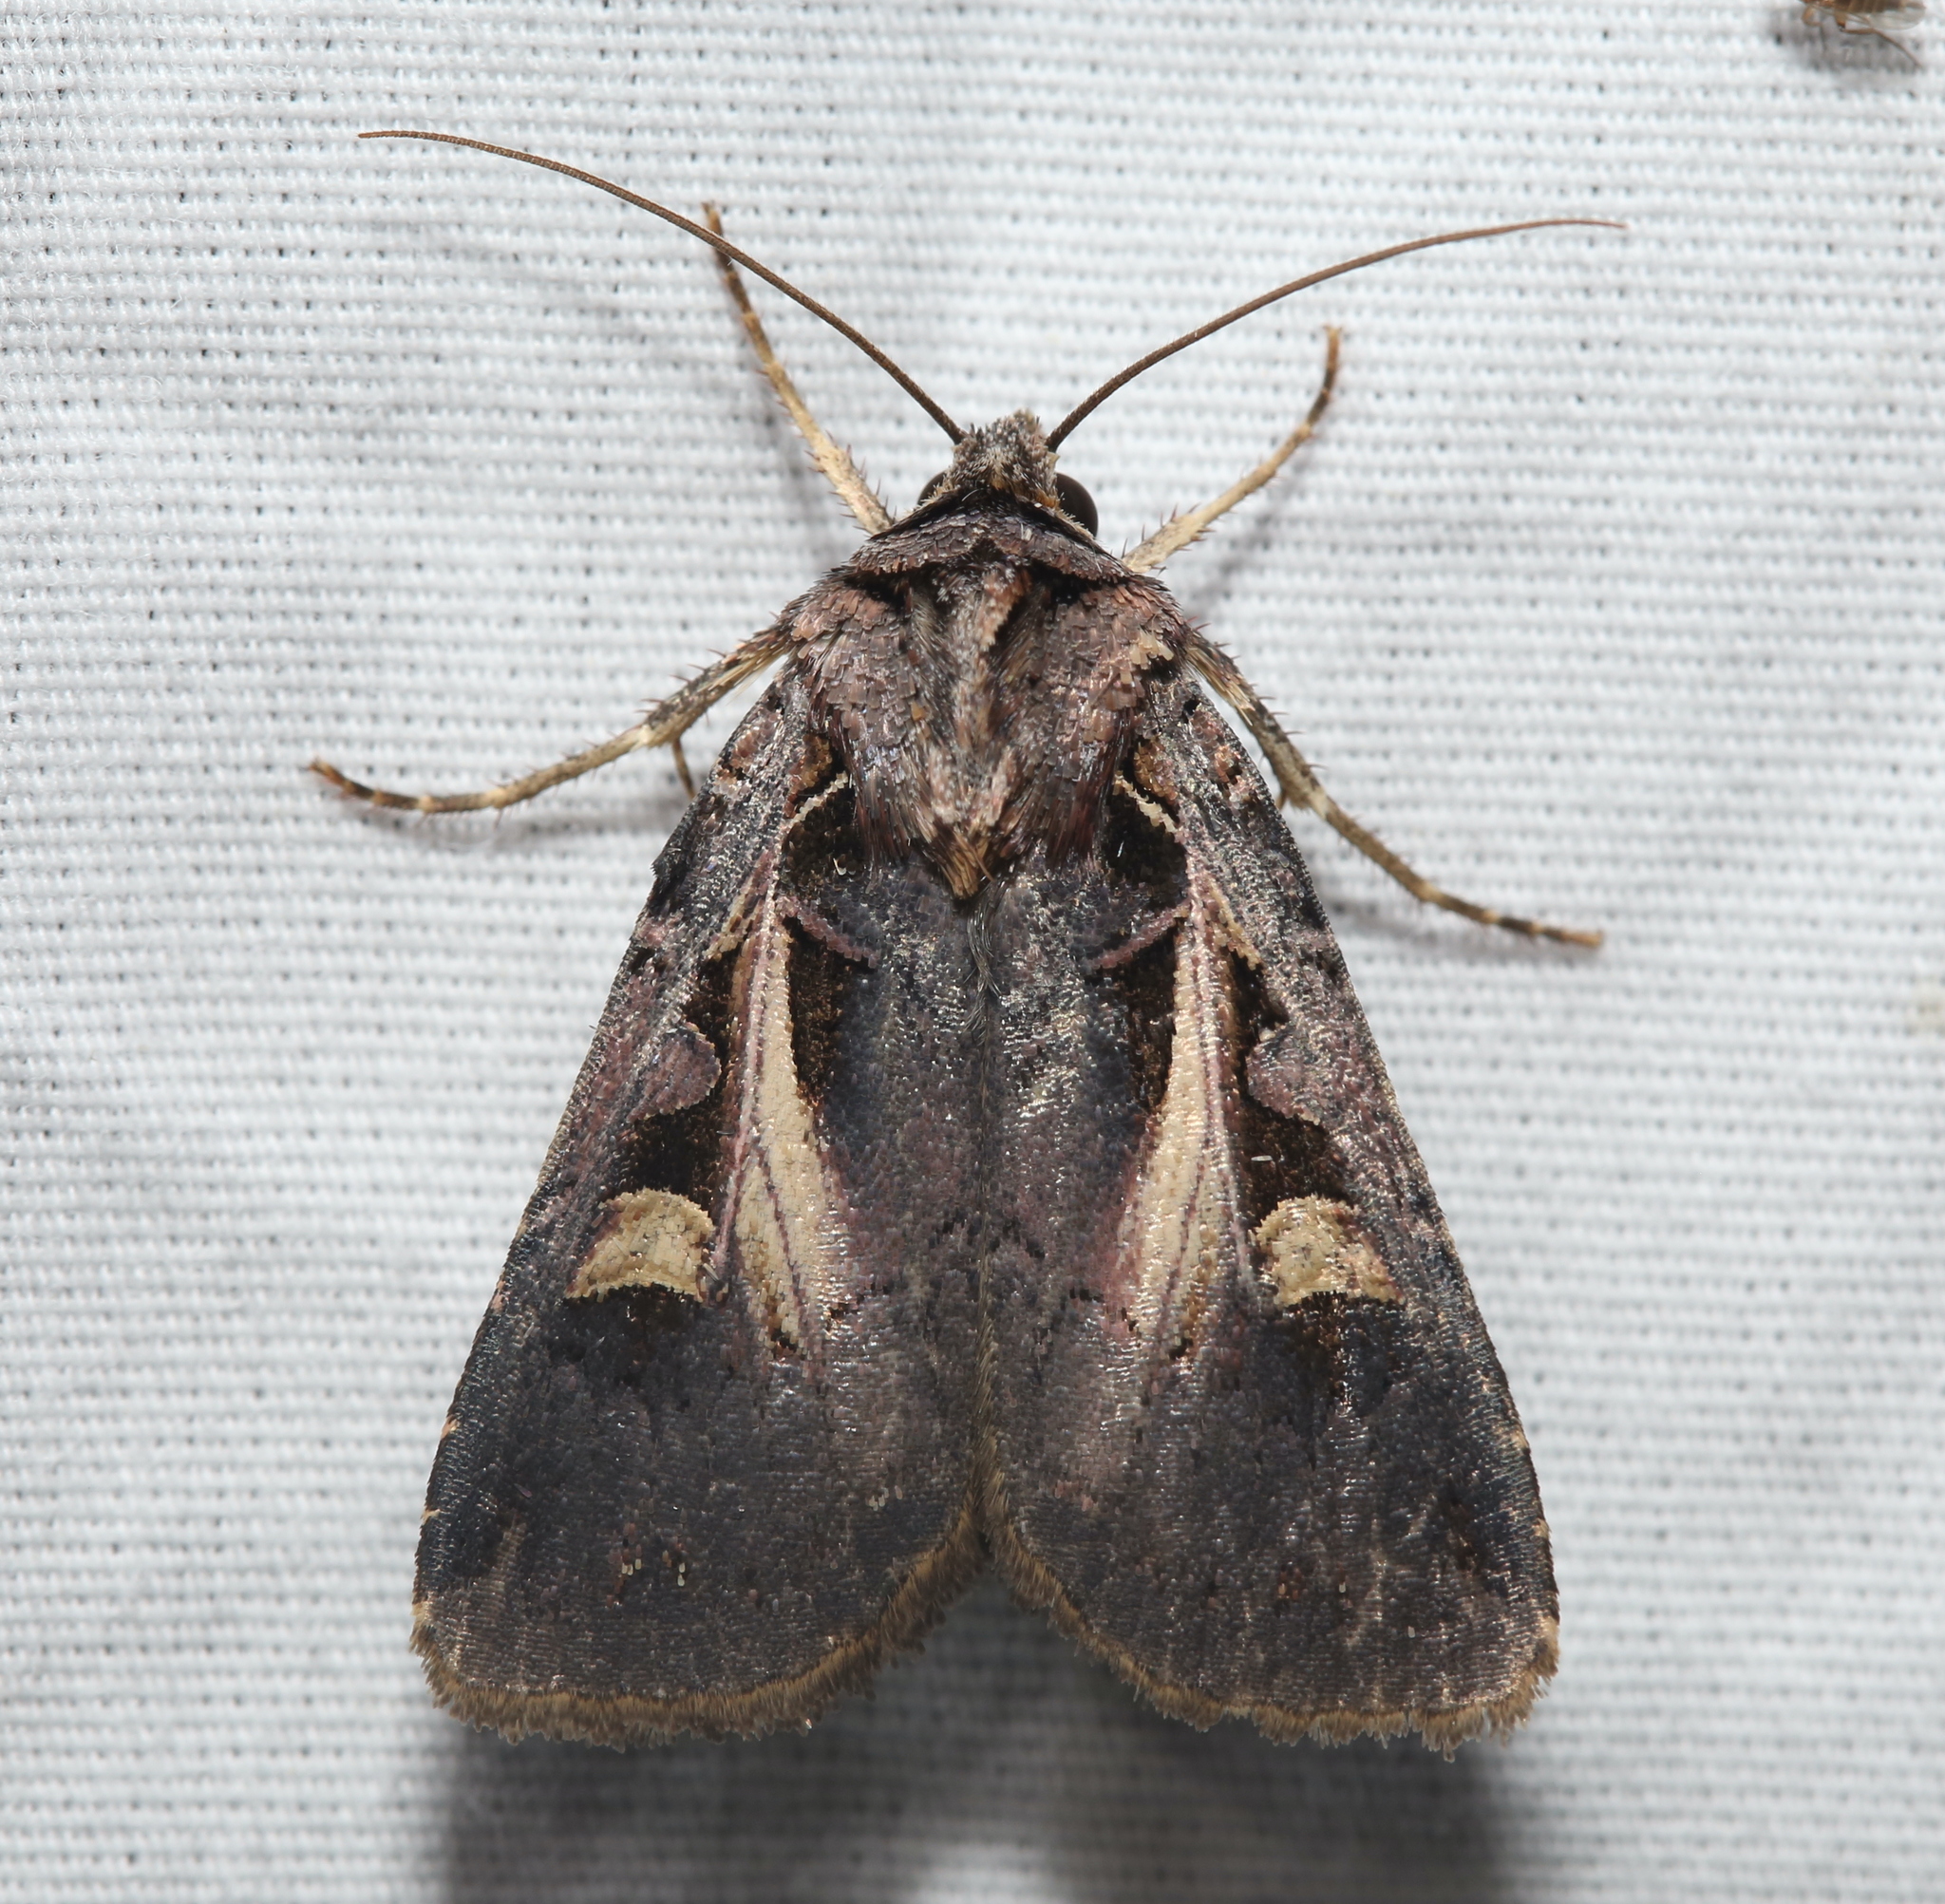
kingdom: Animalia
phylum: Arthropoda
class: Insecta
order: Lepidoptera
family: Noctuidae
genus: Feltia
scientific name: Feltia herilis
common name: Master's dart
